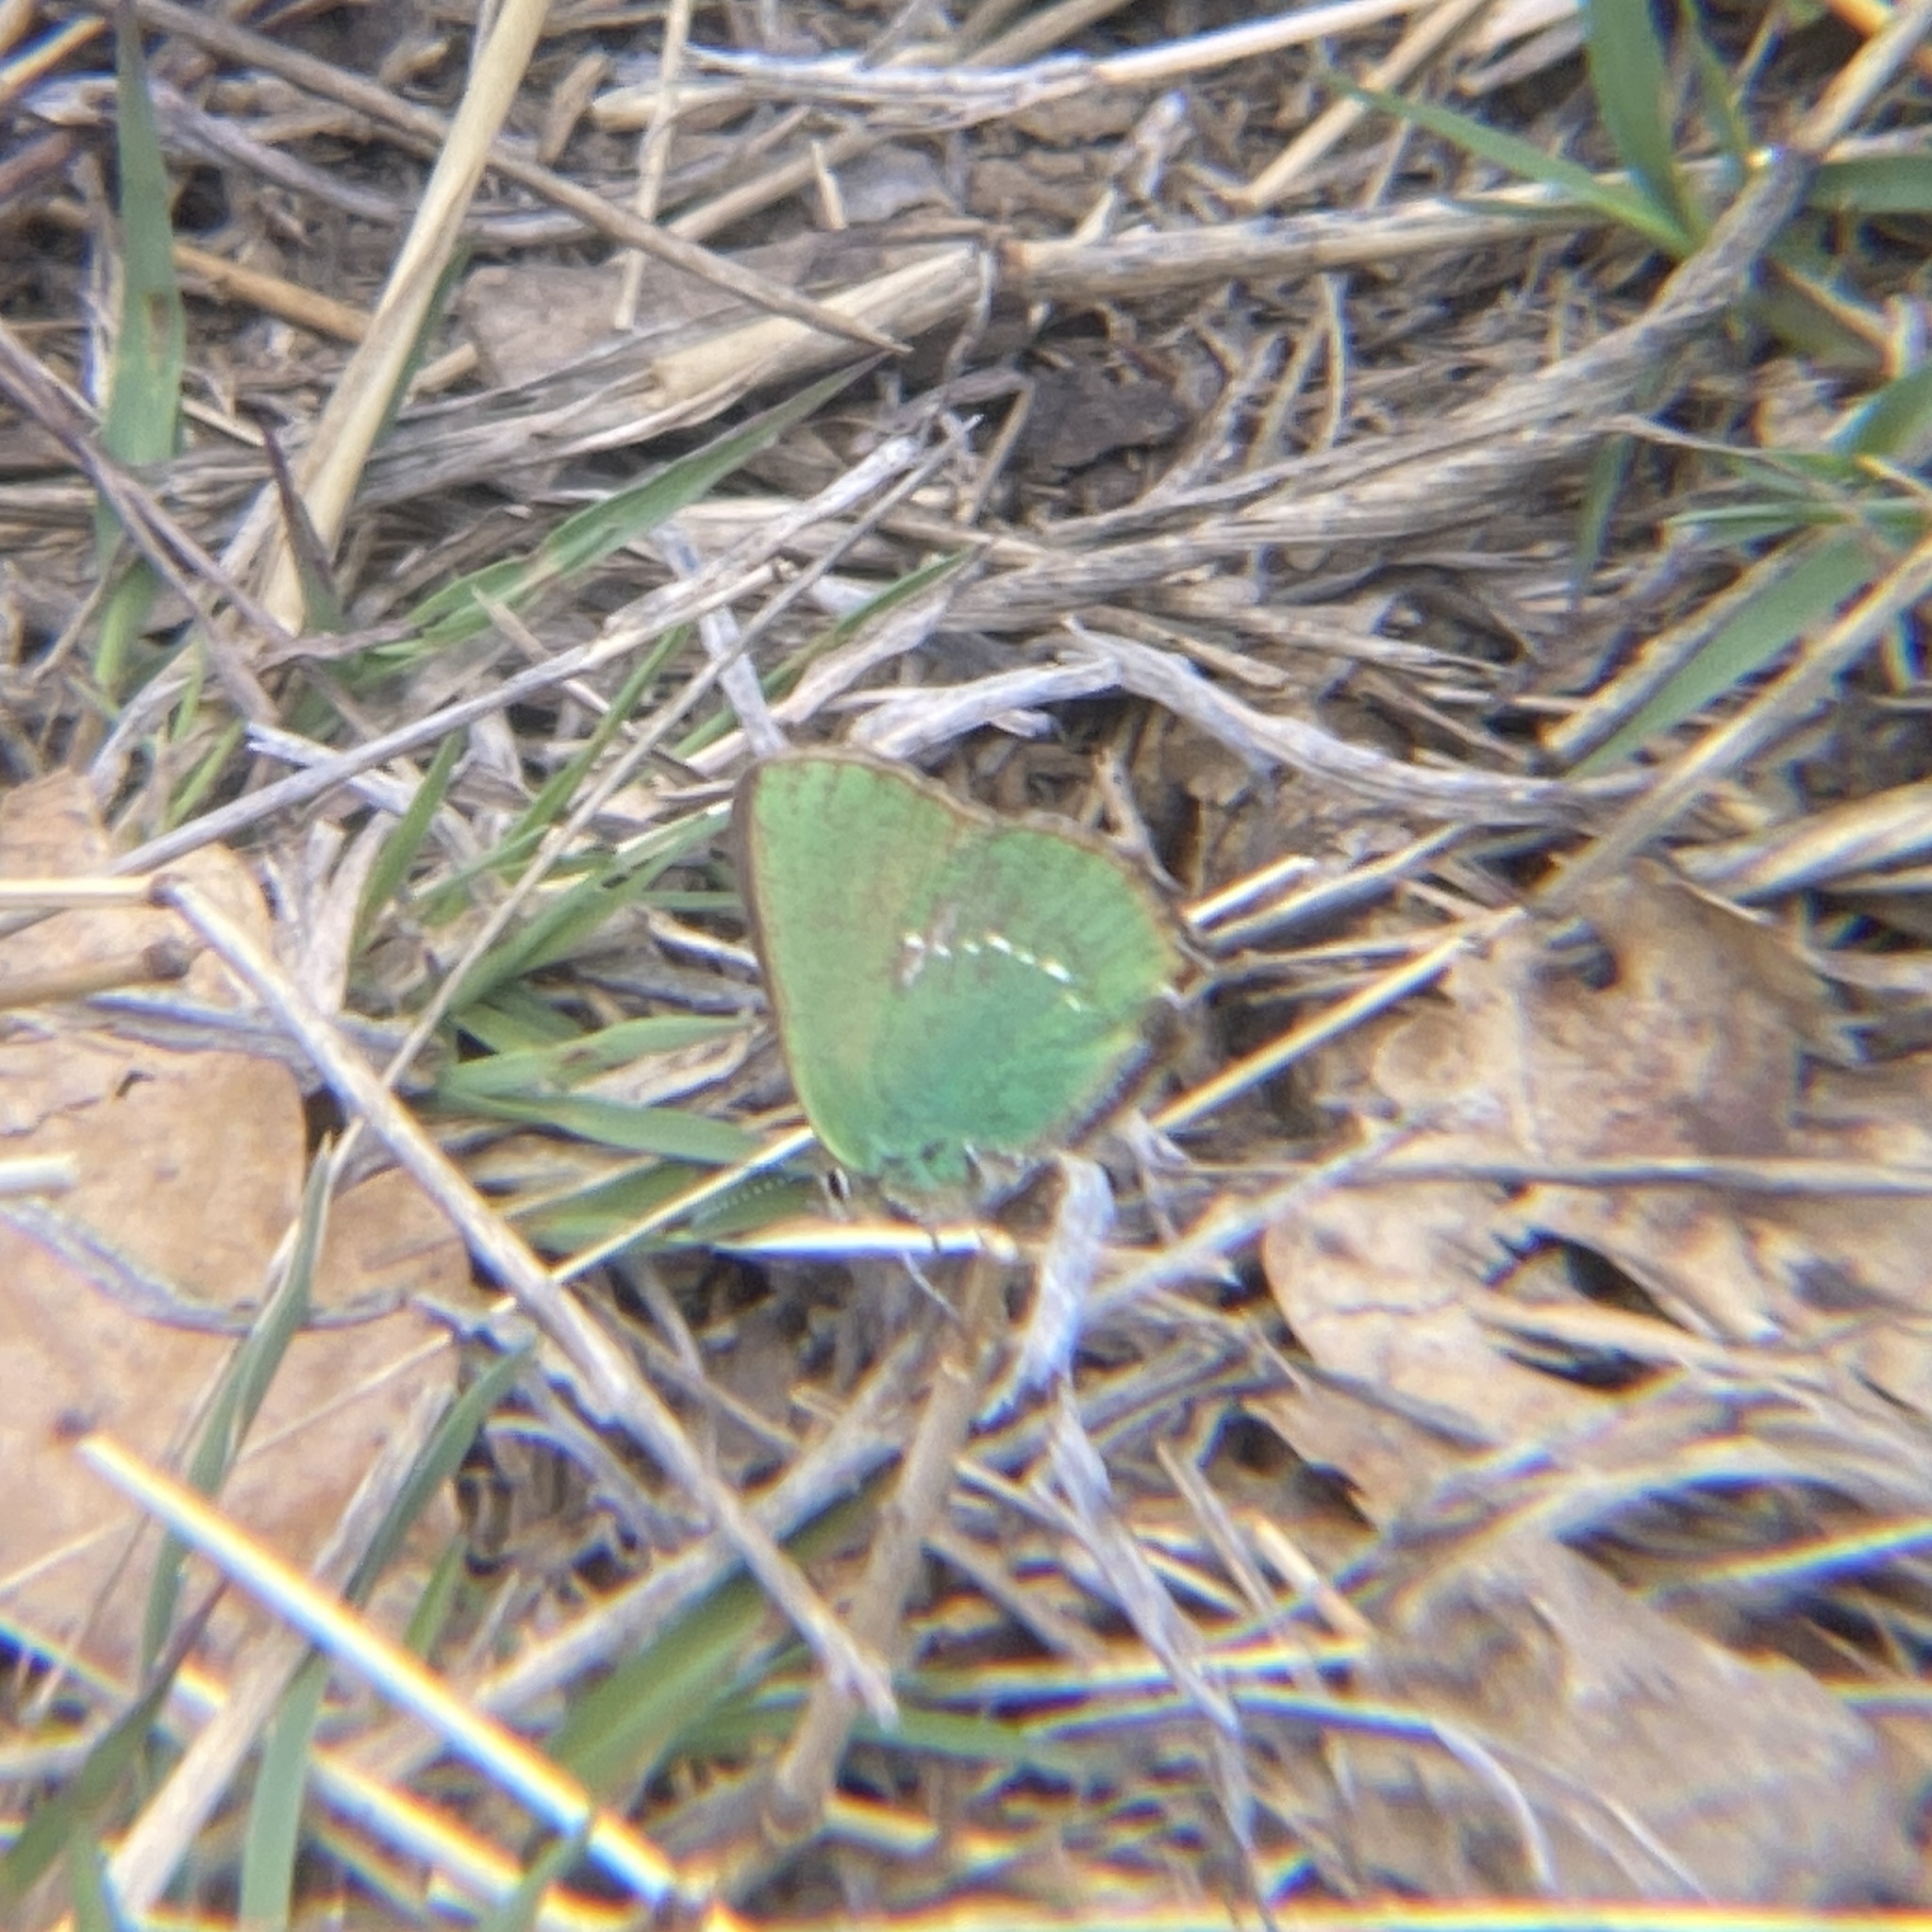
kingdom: Animalia
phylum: Arthropoda
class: Insecta
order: Lepidoptera
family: Lycaenidae
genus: Callophrys
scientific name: Callophrys rubi
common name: Green hairstreak
